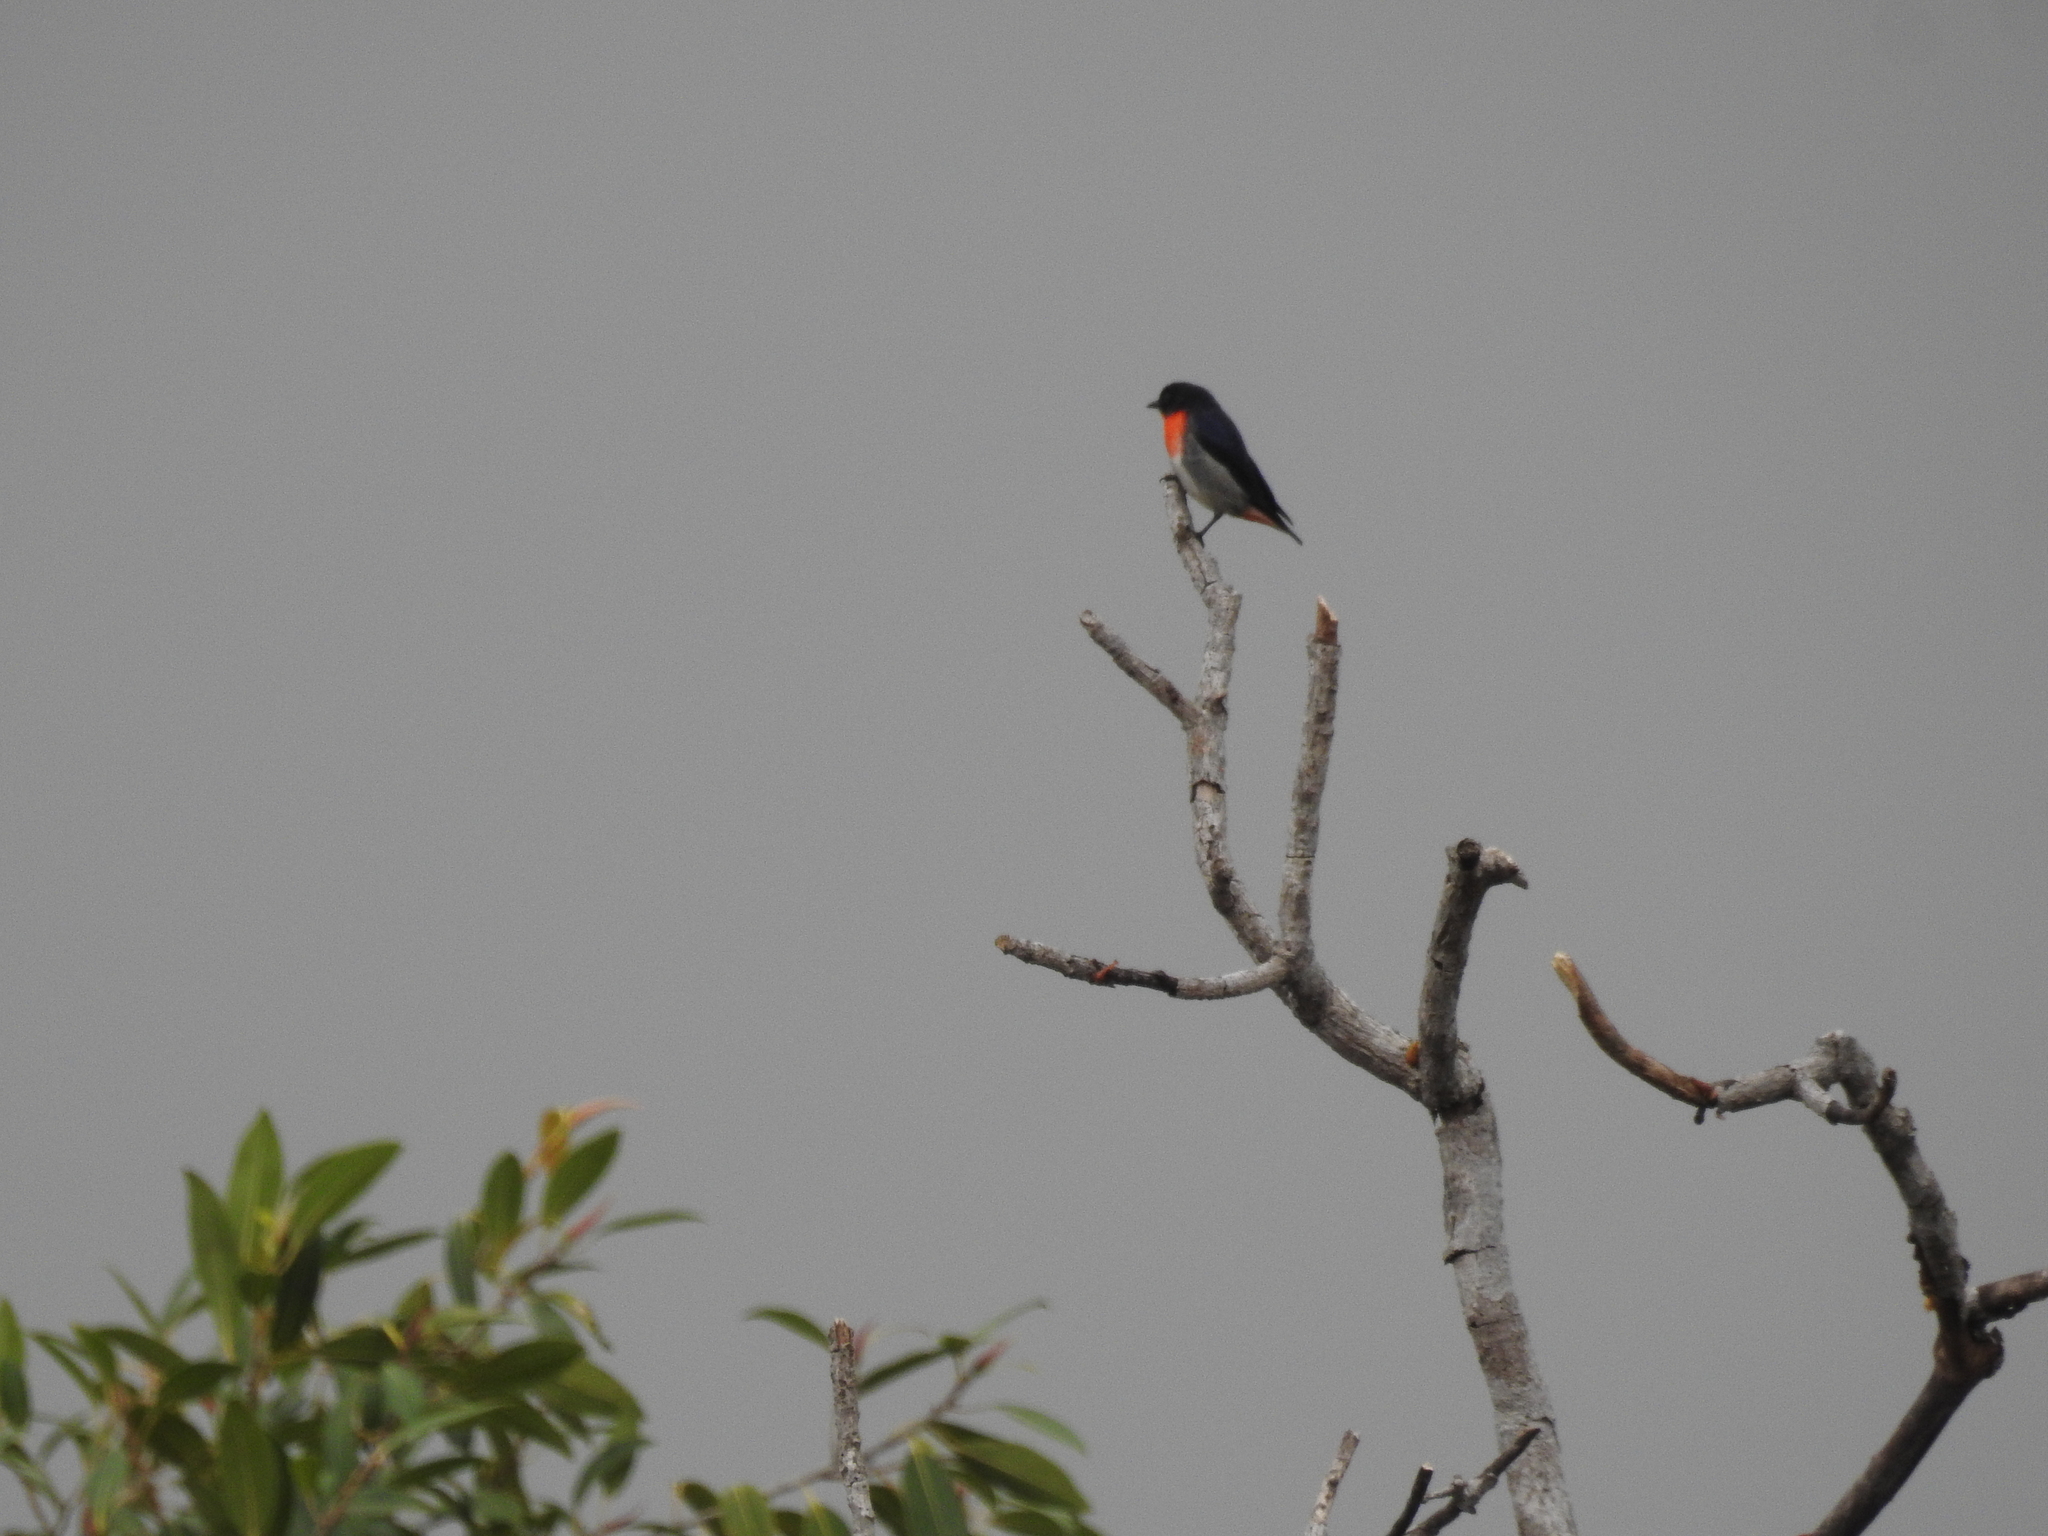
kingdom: Animalia
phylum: Chordata
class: Aves
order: Passeriformes
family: Dicaeidae
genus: Dicaeum
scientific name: Dicaeum hirundinaceum
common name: Mistletoebird
